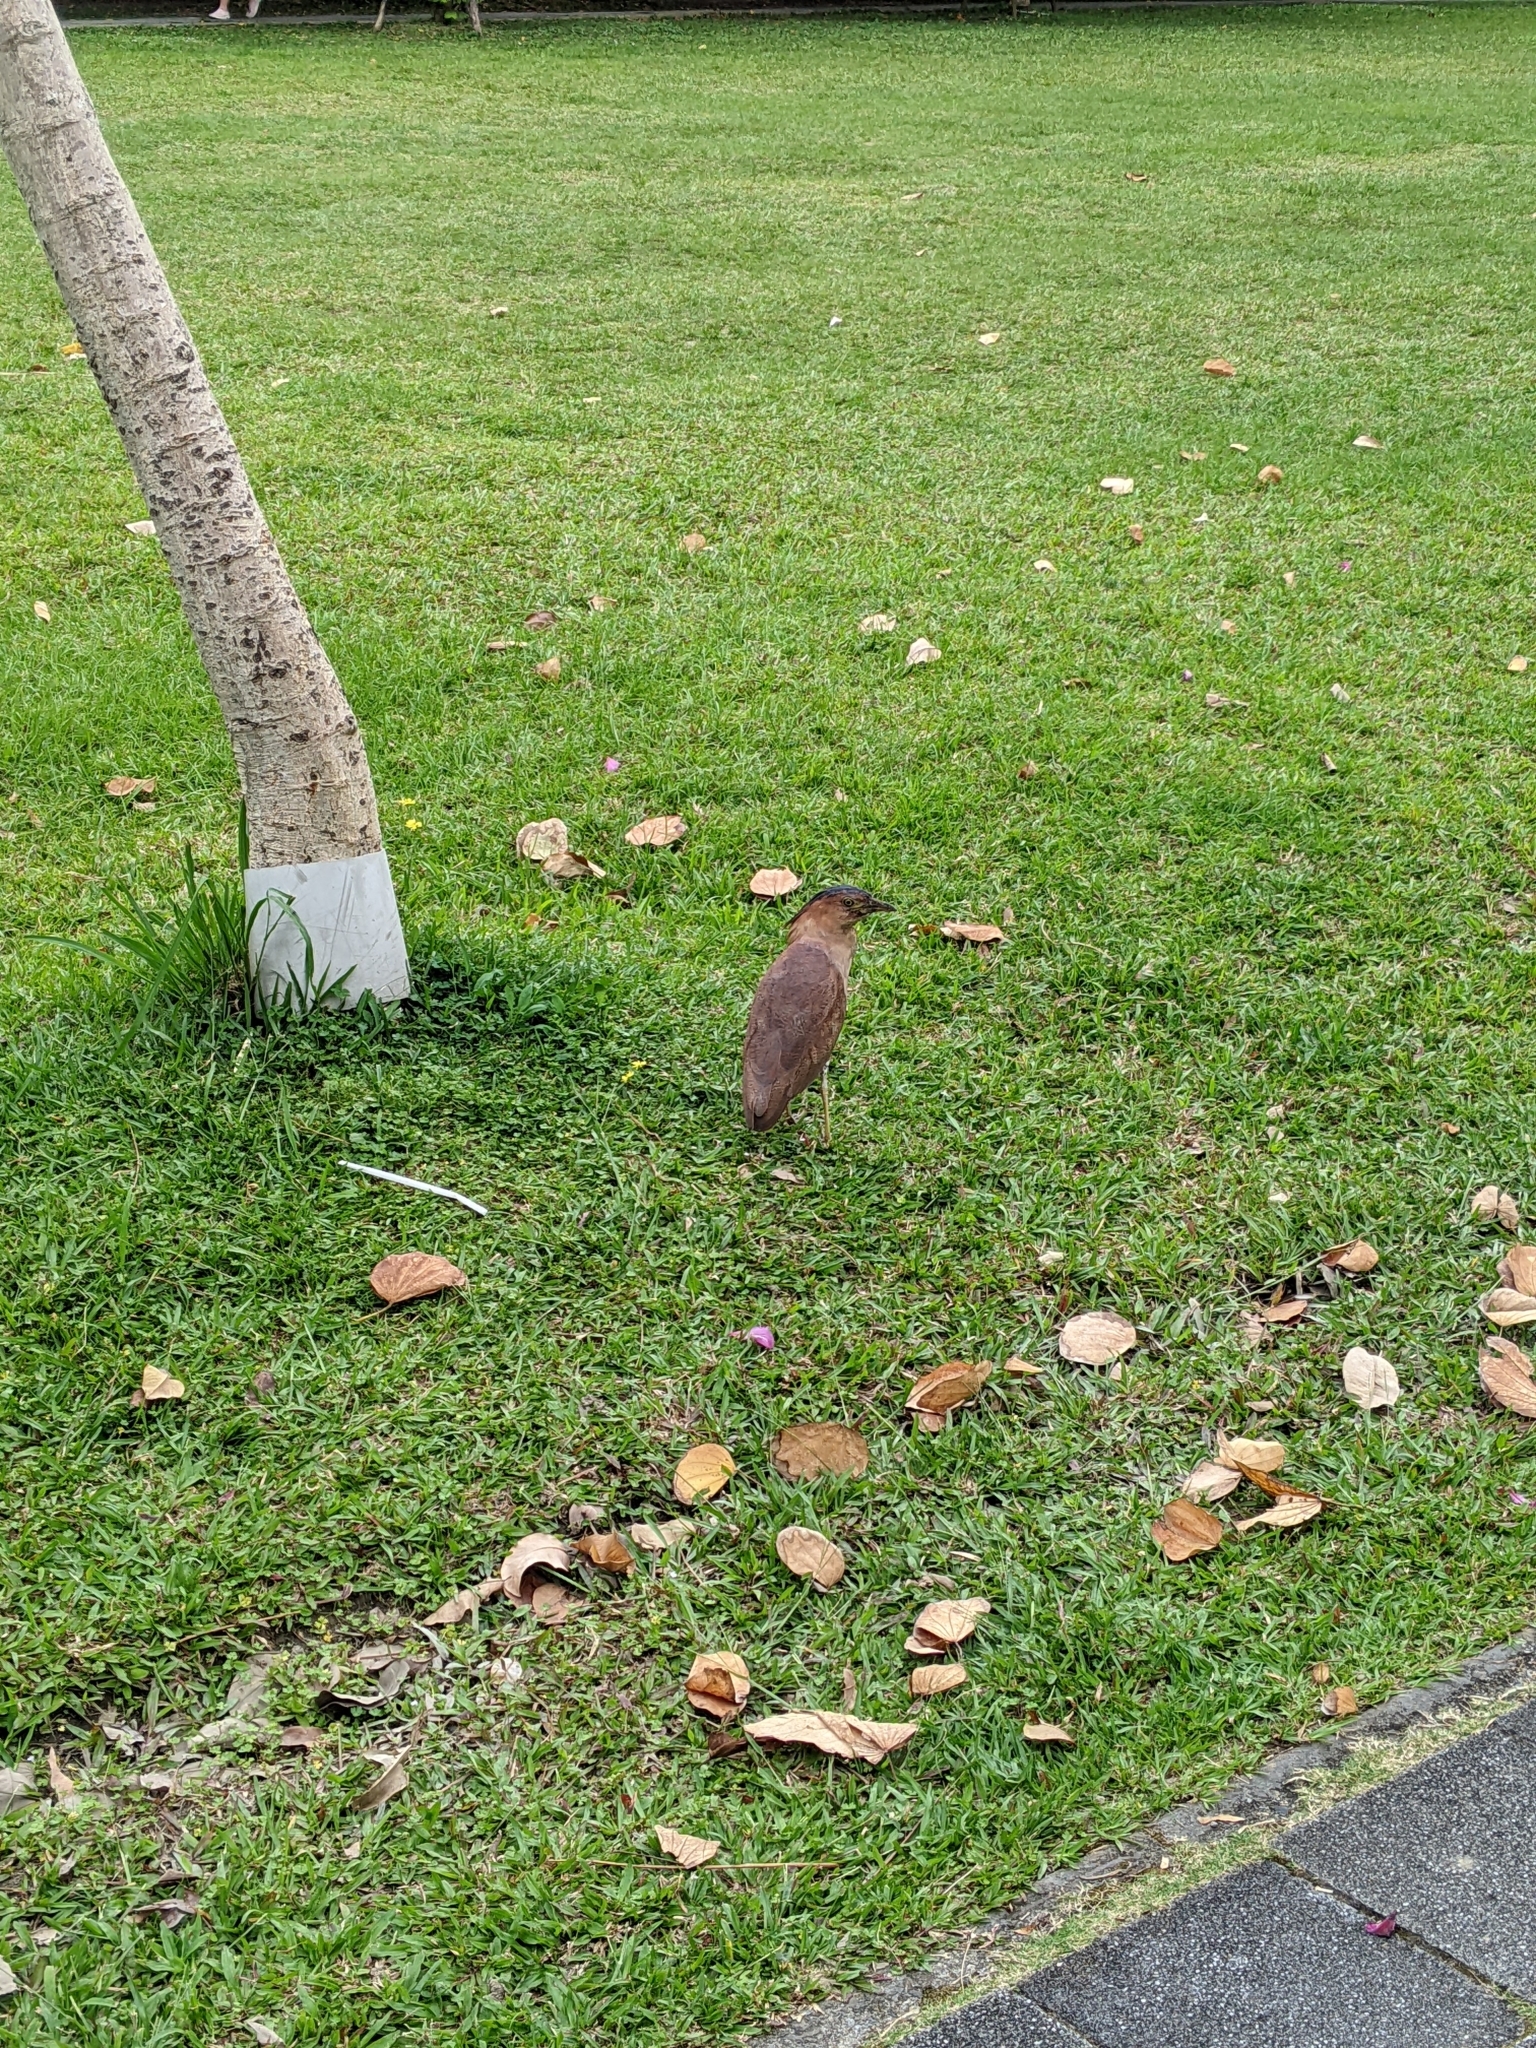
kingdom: Animalia
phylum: Chordata
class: Aves
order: Pelecaniformes
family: Ardeidae
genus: Gorsachius
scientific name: Gorsachius melanolophus
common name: Malayan night heron
